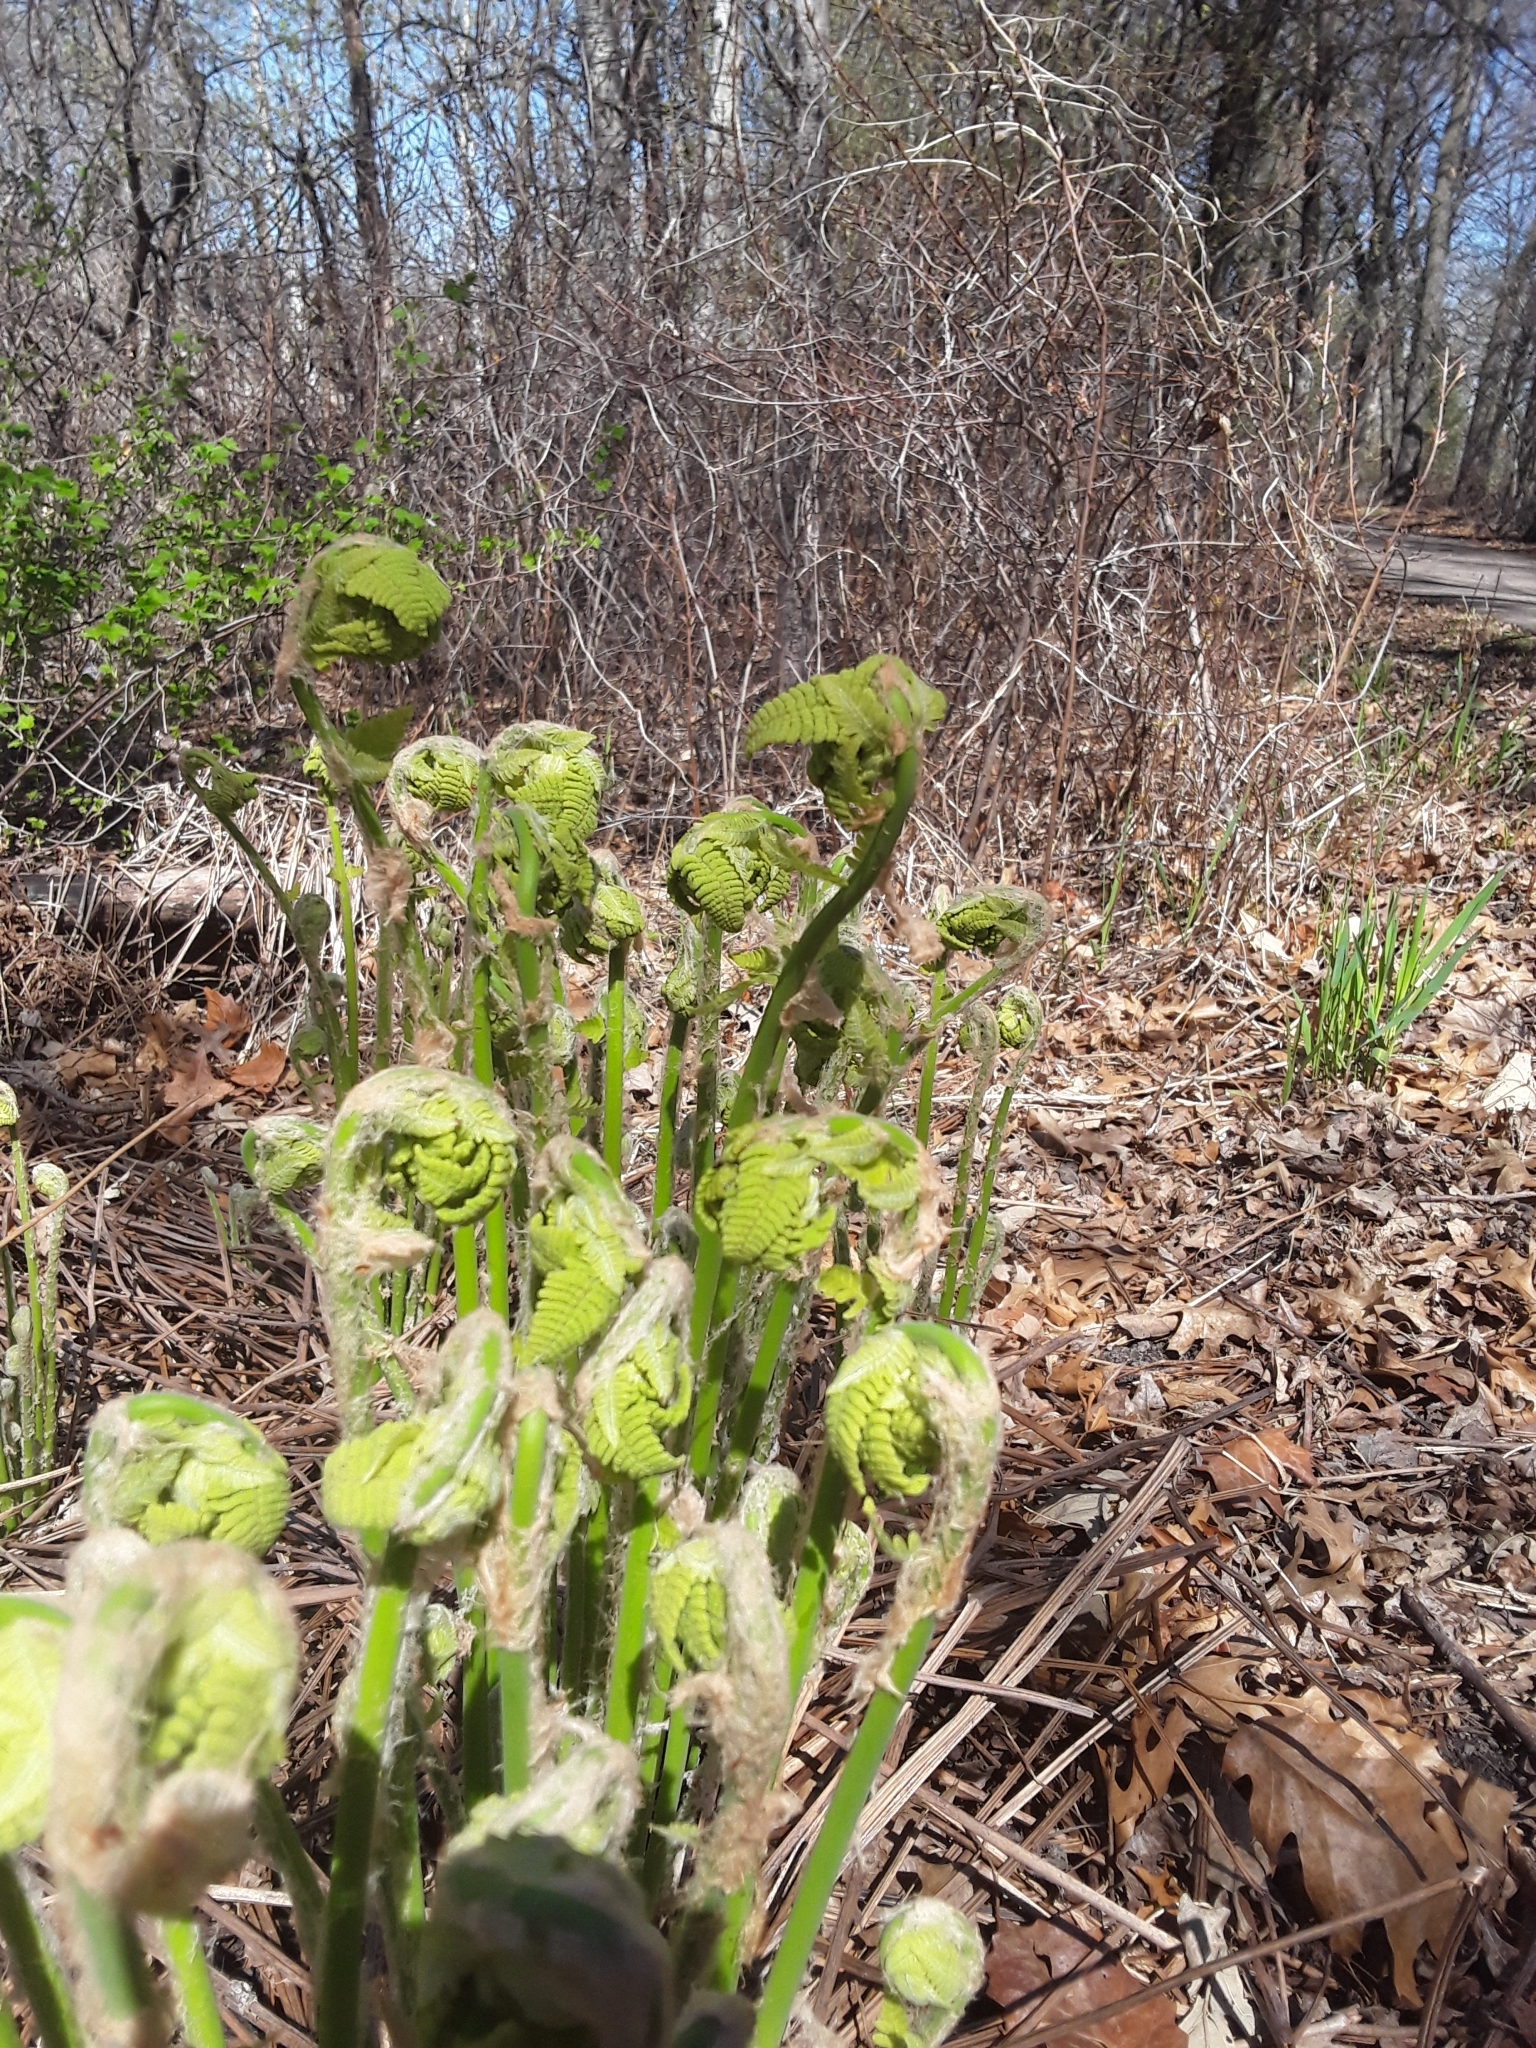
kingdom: Plantae
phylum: Tracheophyta
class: Polypodiopsida
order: Osmundales
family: Osmundaceae
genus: Claytosmunda
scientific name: Claytosmunda claytoniana
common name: Clayton's fern
